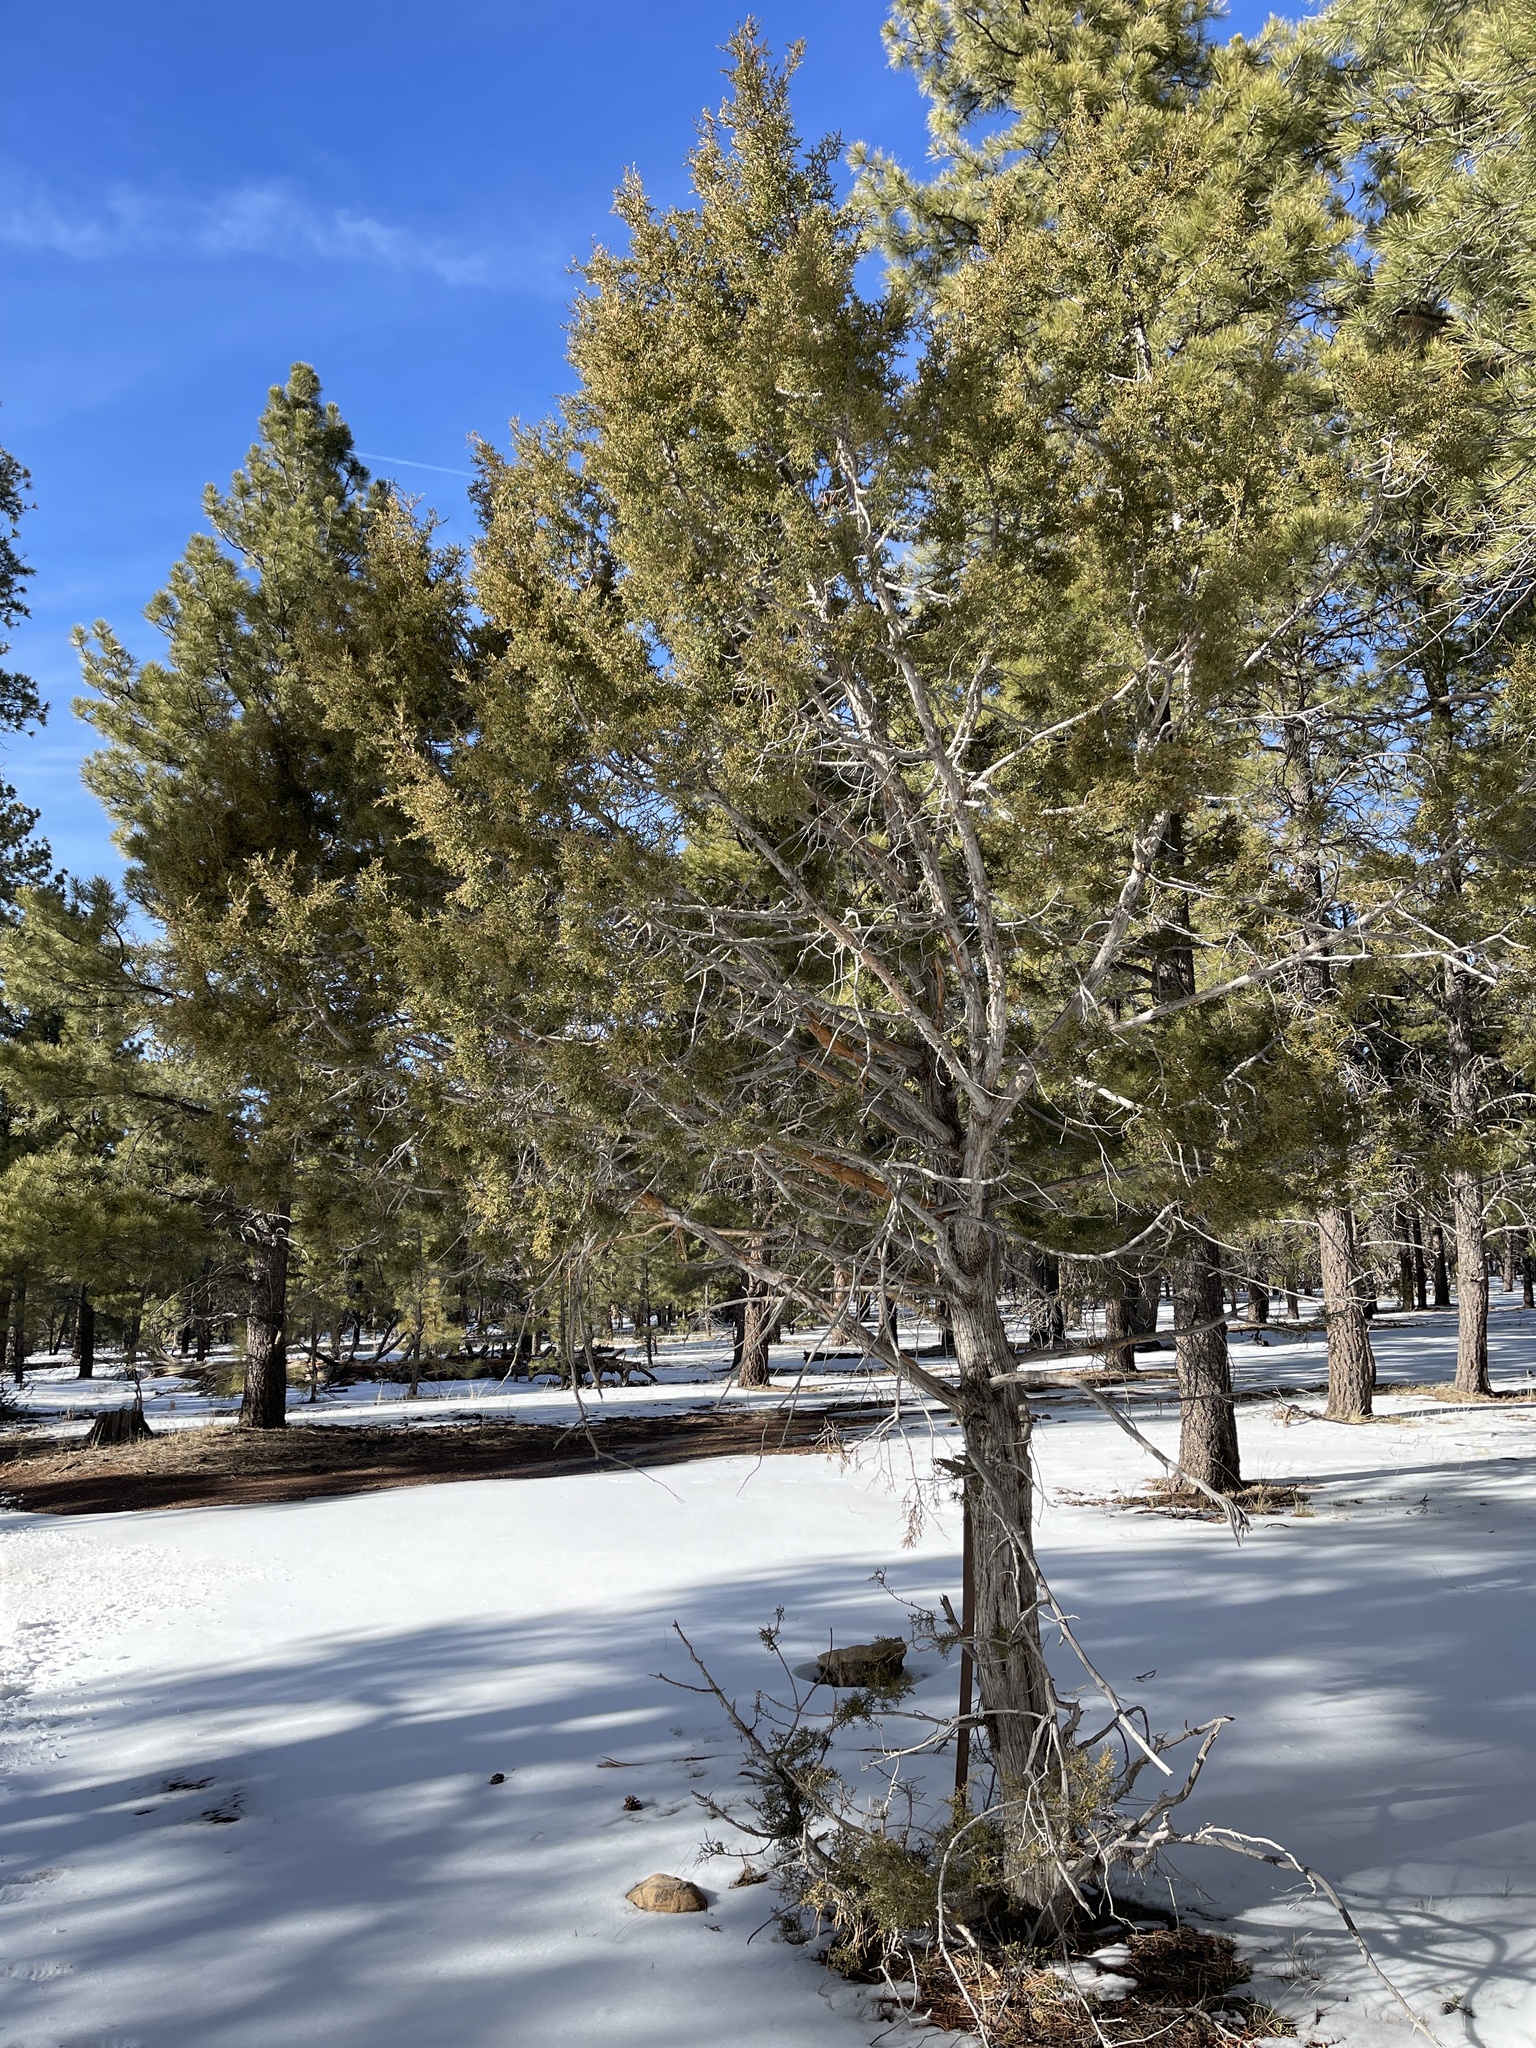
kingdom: Plantae
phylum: Tracheophyta
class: Pinopsida
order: Pinales
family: Cupressaceae
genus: Juniperus
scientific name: Juniperus osteosperma
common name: Utah juniper
